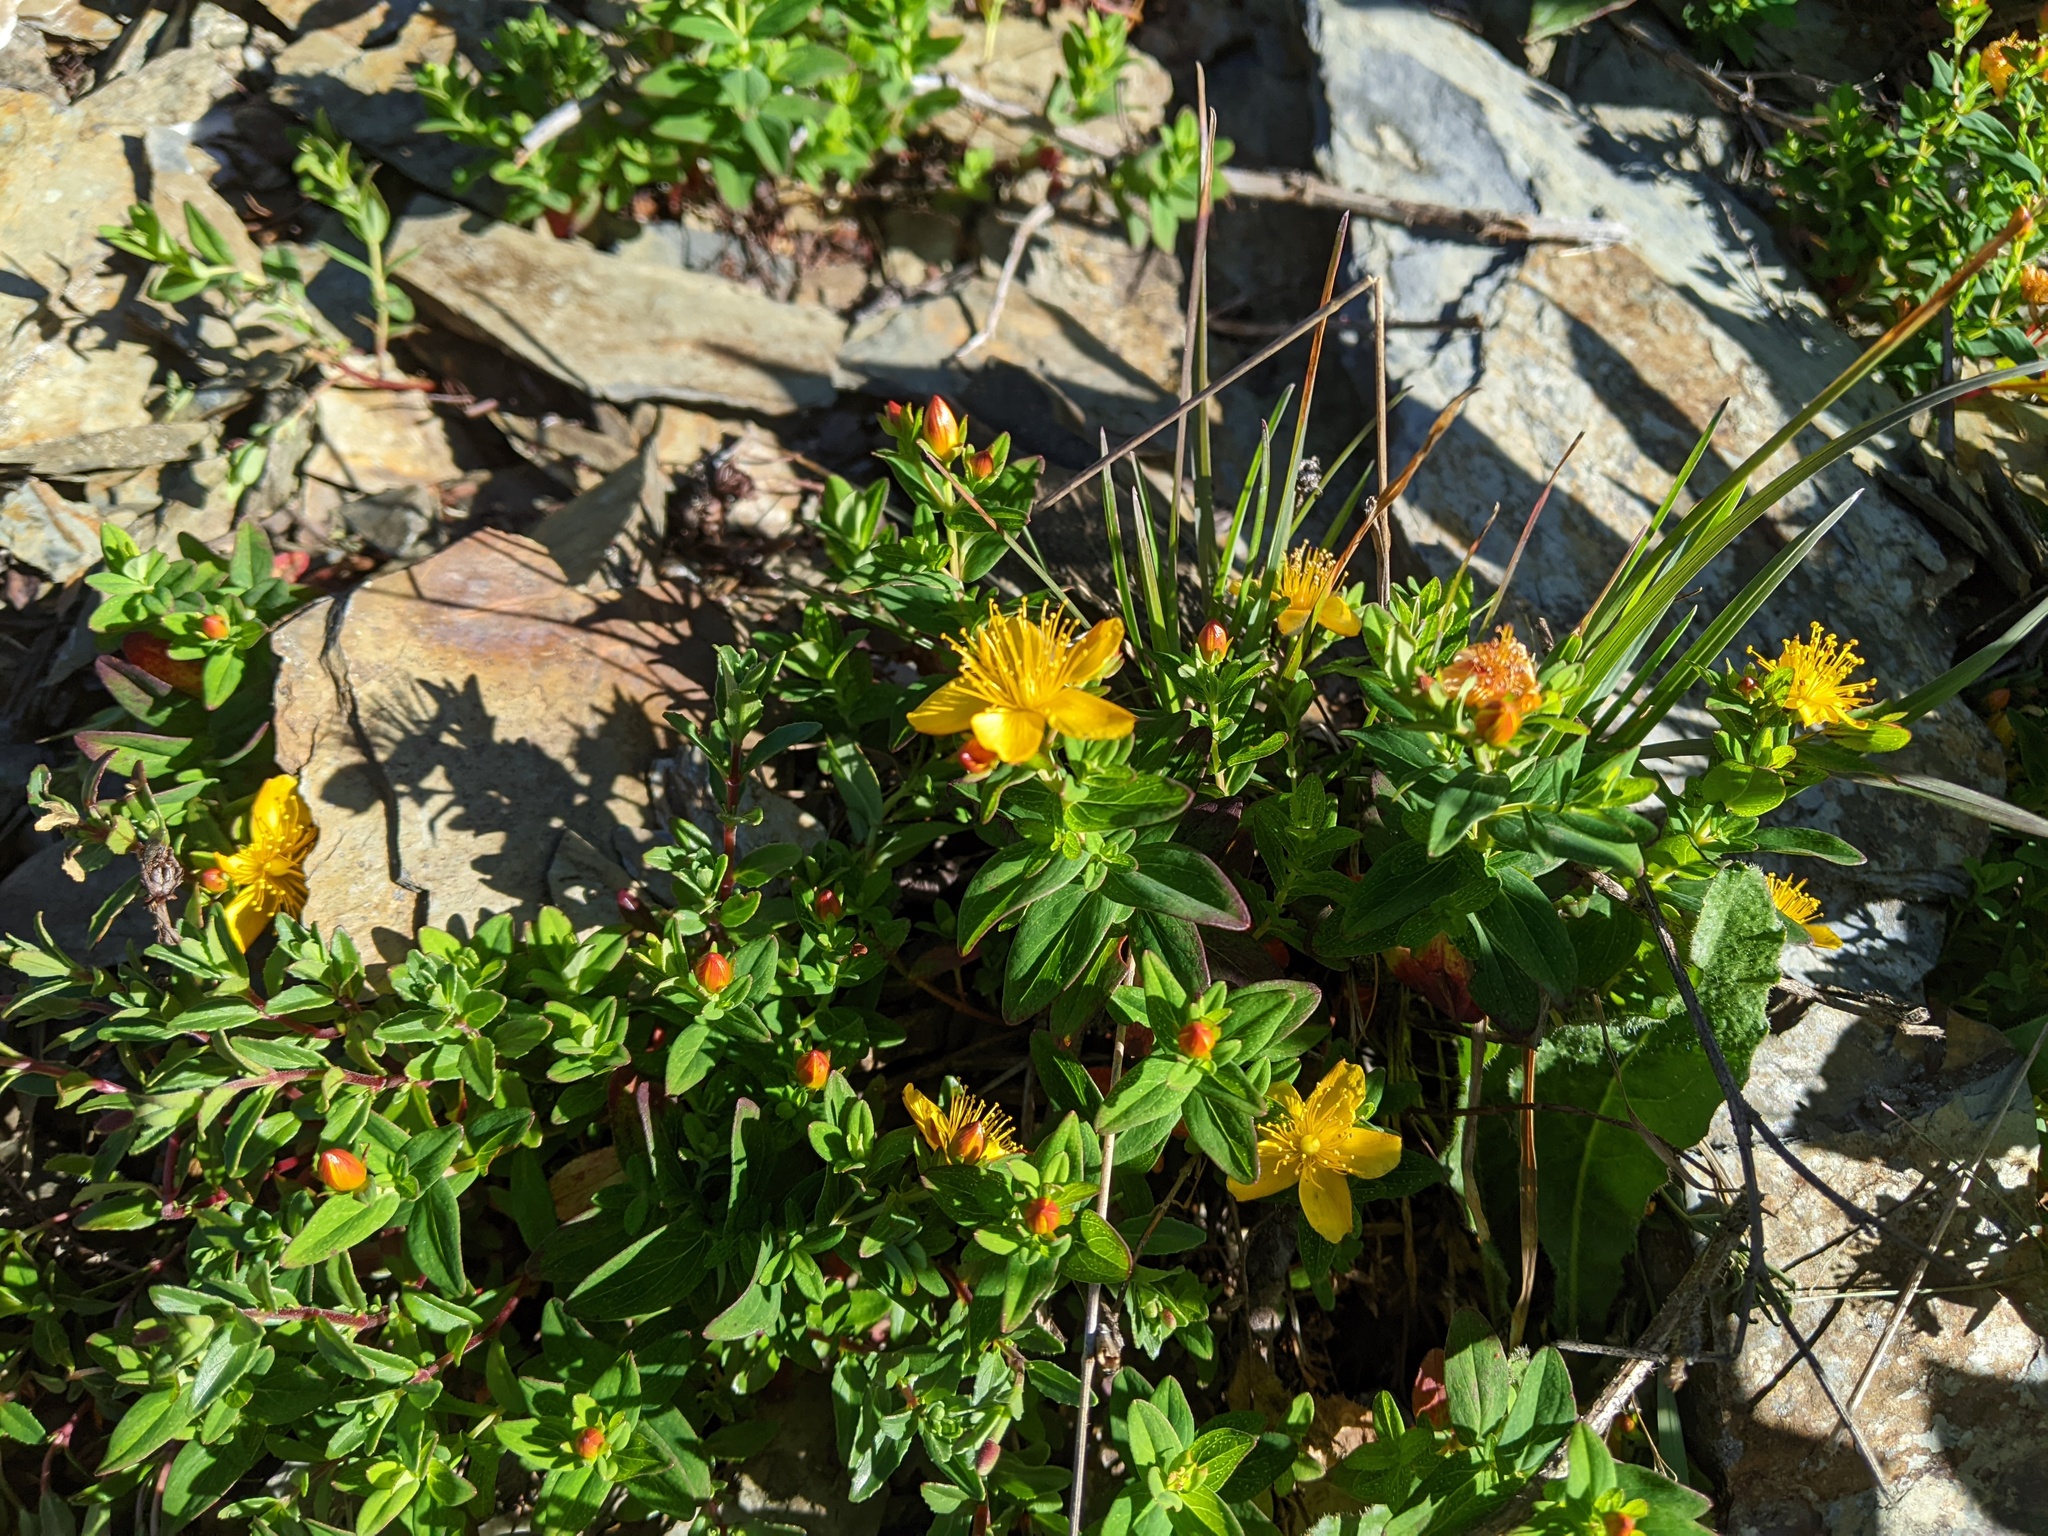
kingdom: Plantae
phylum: Tracheophyta
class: Magnoliopsida
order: Malpighiales
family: Hypericaceae
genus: Hypericum
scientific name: Hypericum nagasawae
